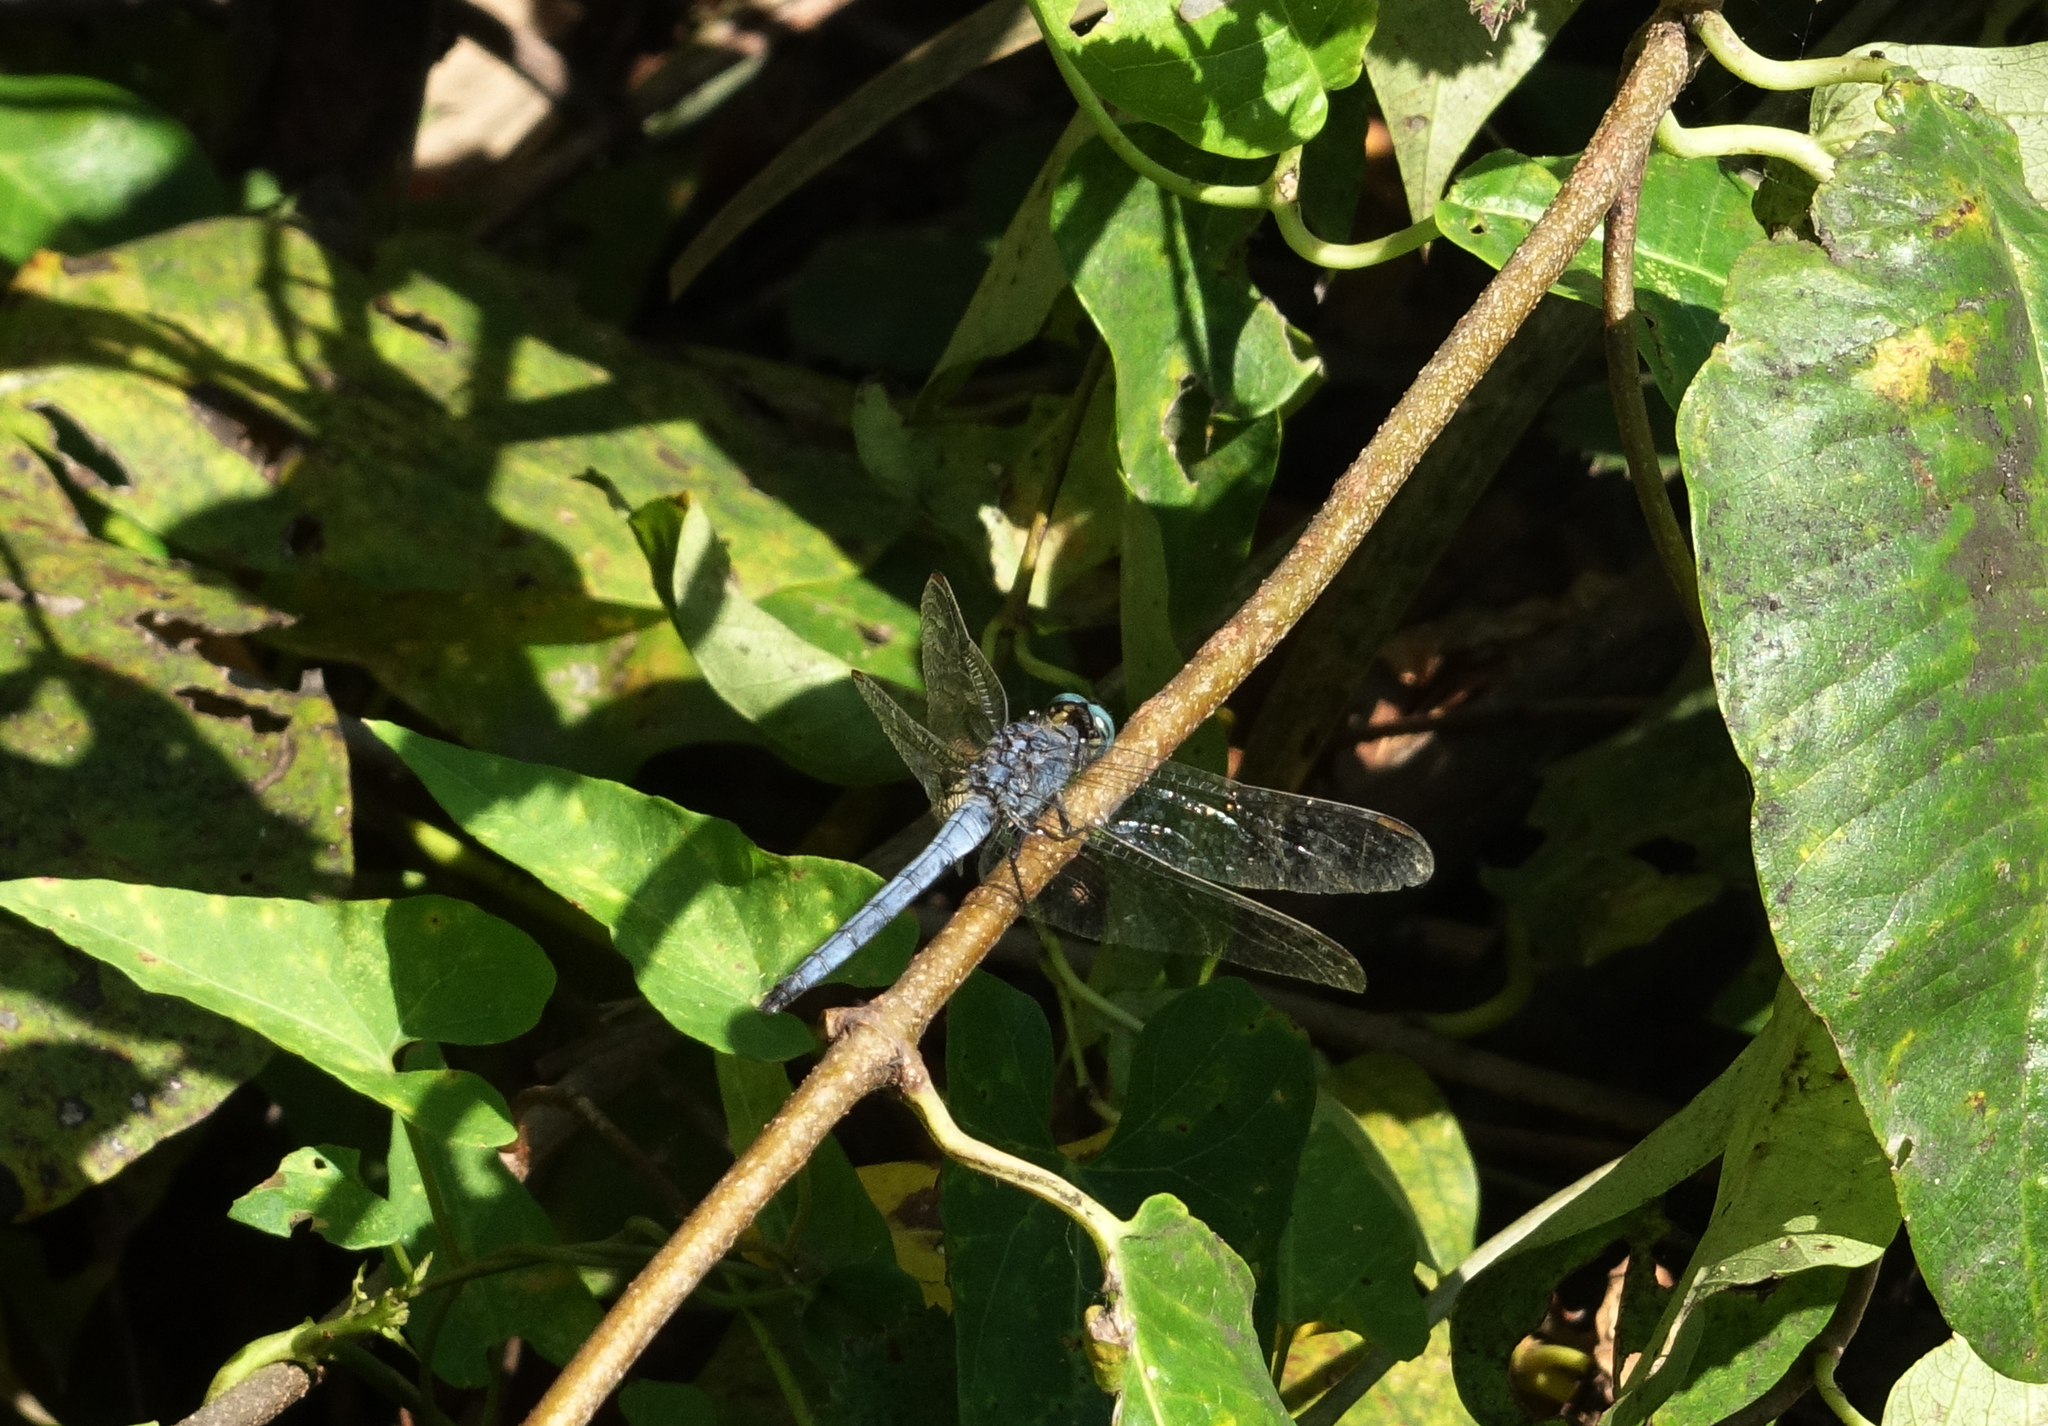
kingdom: Animalia
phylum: Arthropoda
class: Insecta
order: Odonata
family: Libellulidae
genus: Orthetrum
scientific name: Orthetrum coerulescens
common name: Keeled skimmer
